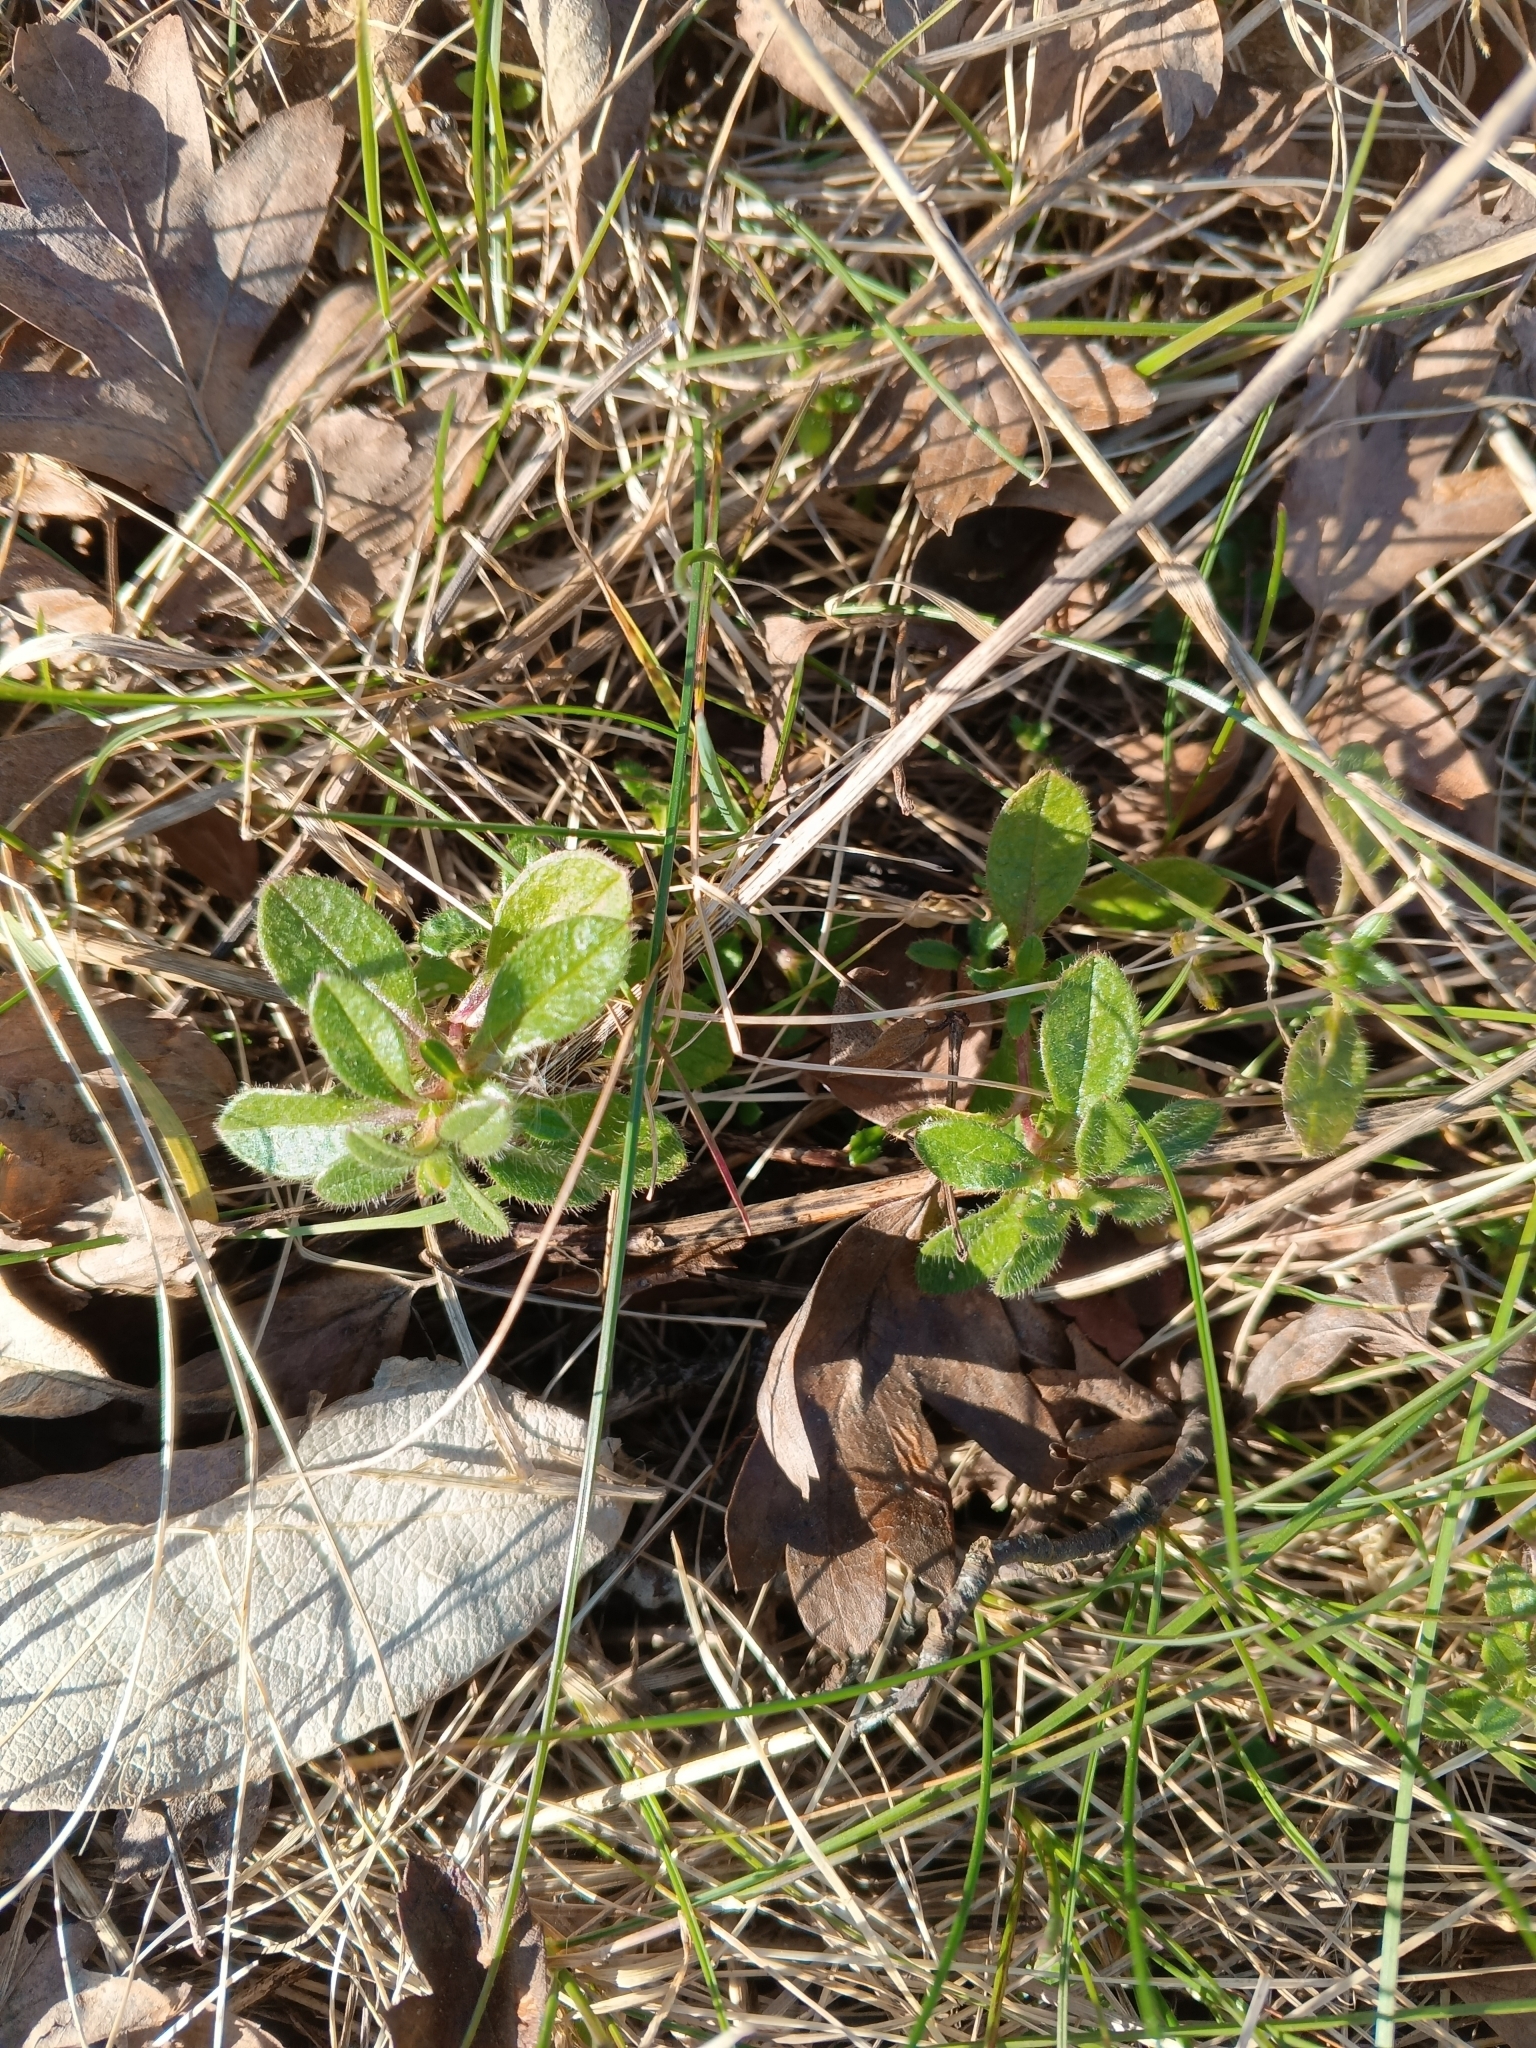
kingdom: Plantae
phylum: Tracheophyta
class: Magnoliopsida
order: Caryophyllales
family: Caryophyllaceae
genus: Cerastium
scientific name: Cerastium holosteoides
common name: Big chickweed
